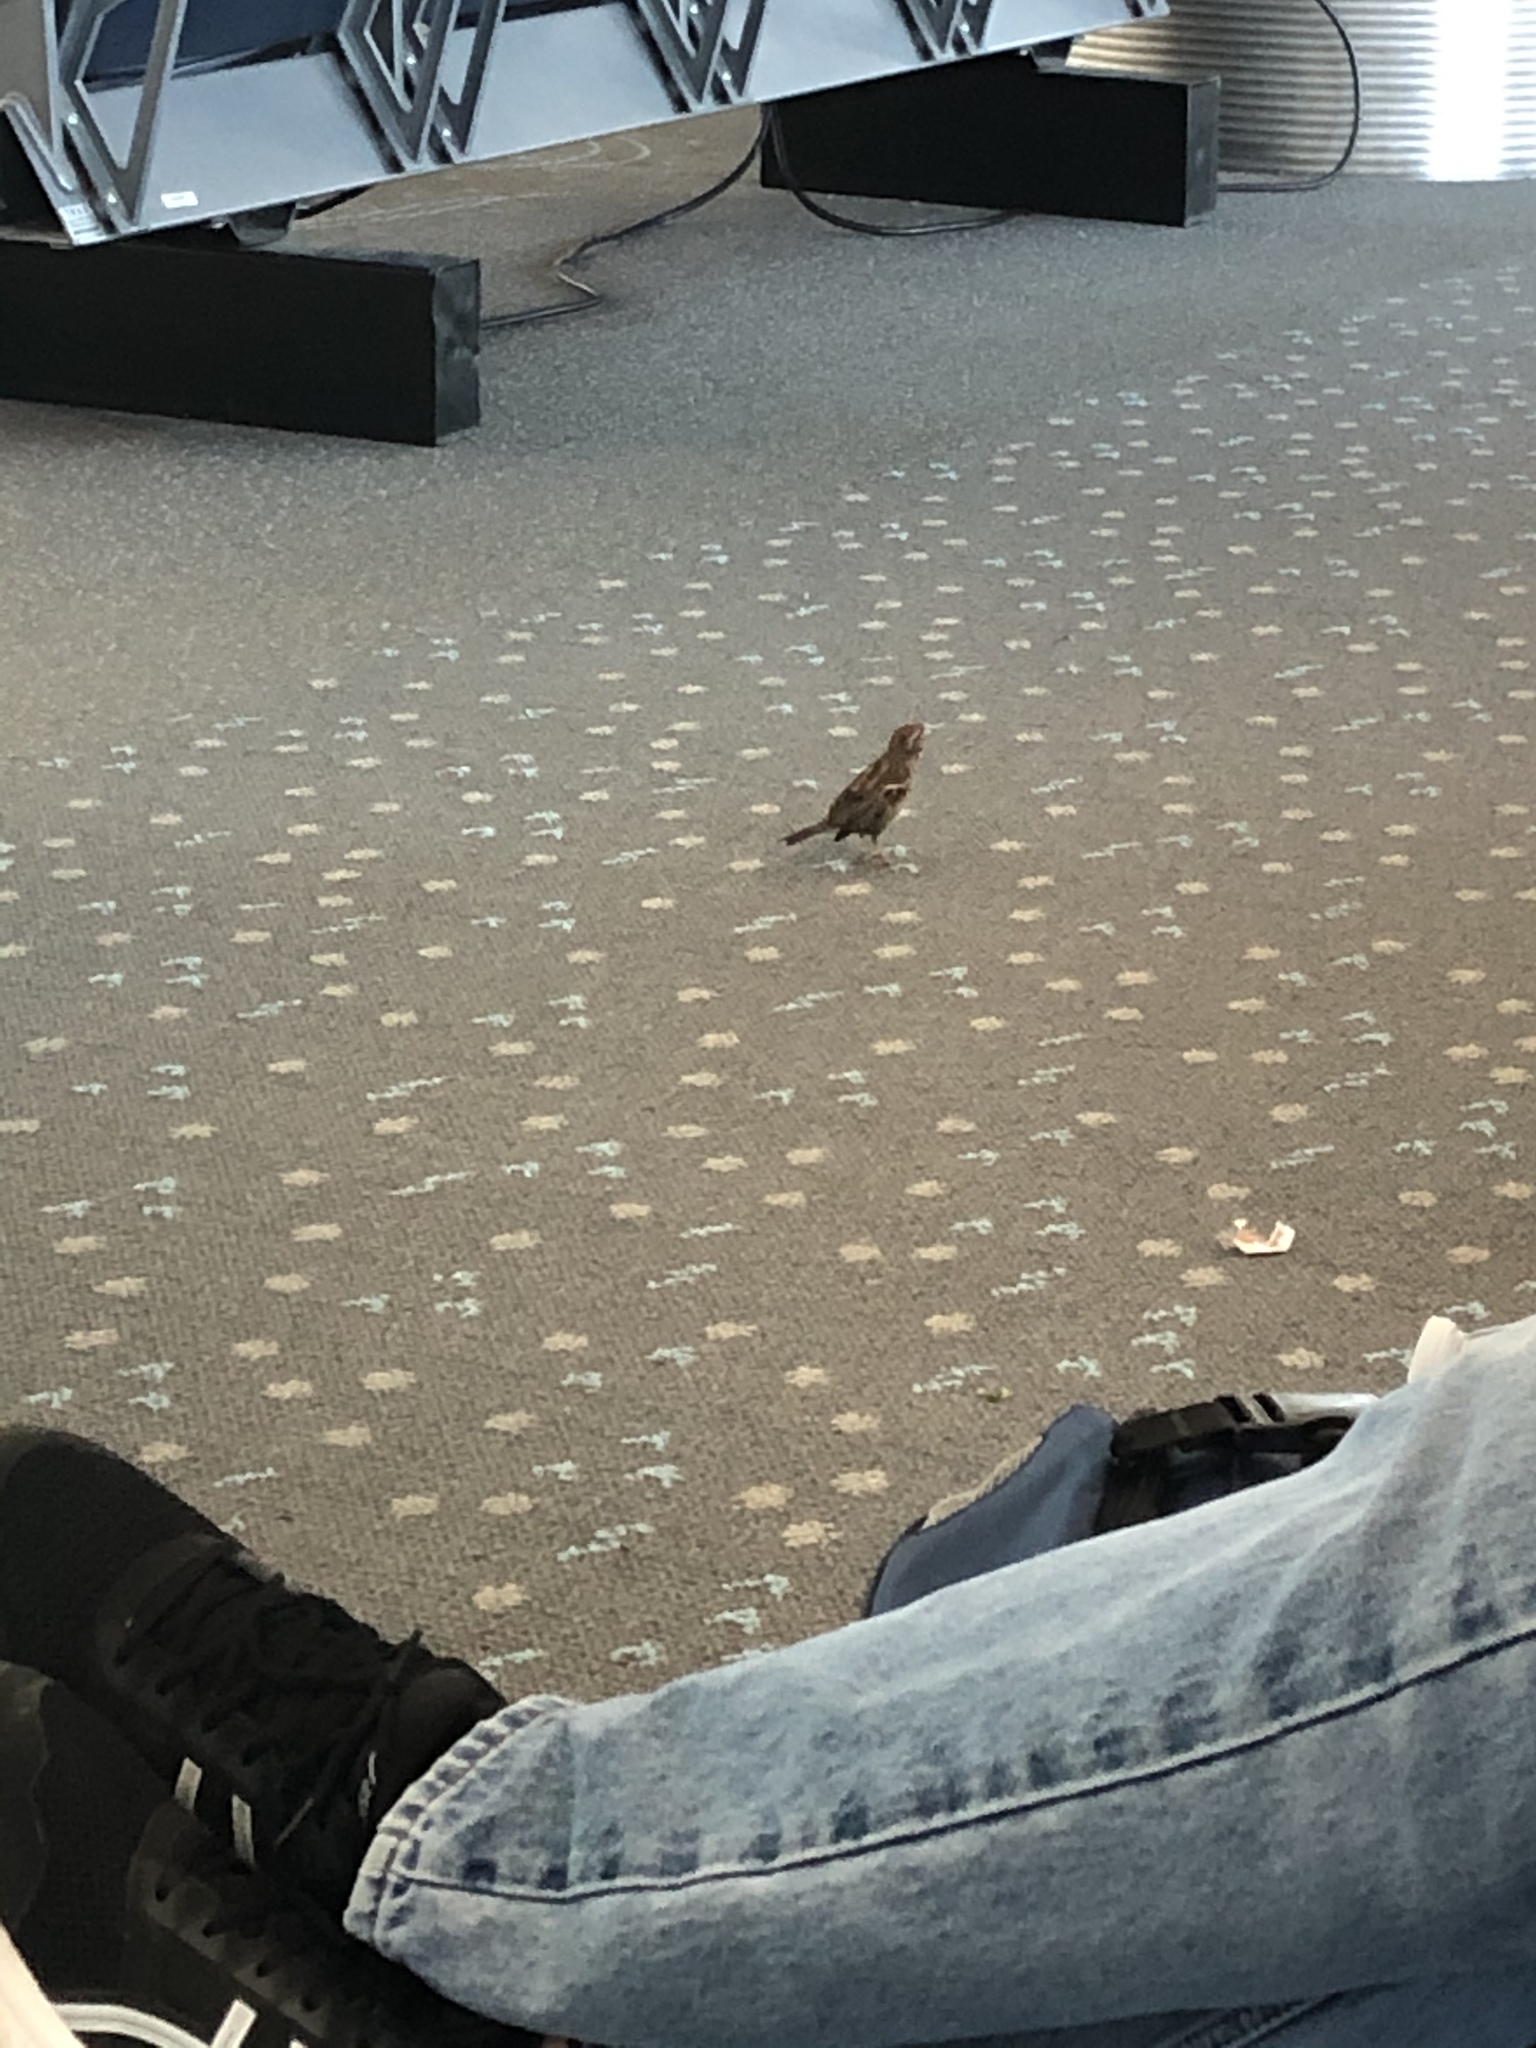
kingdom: Animalia
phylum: Chordata
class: Aves
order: Passeriformes
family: Passeridae
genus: Passer
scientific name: Passer domesticus
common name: House sparrow
